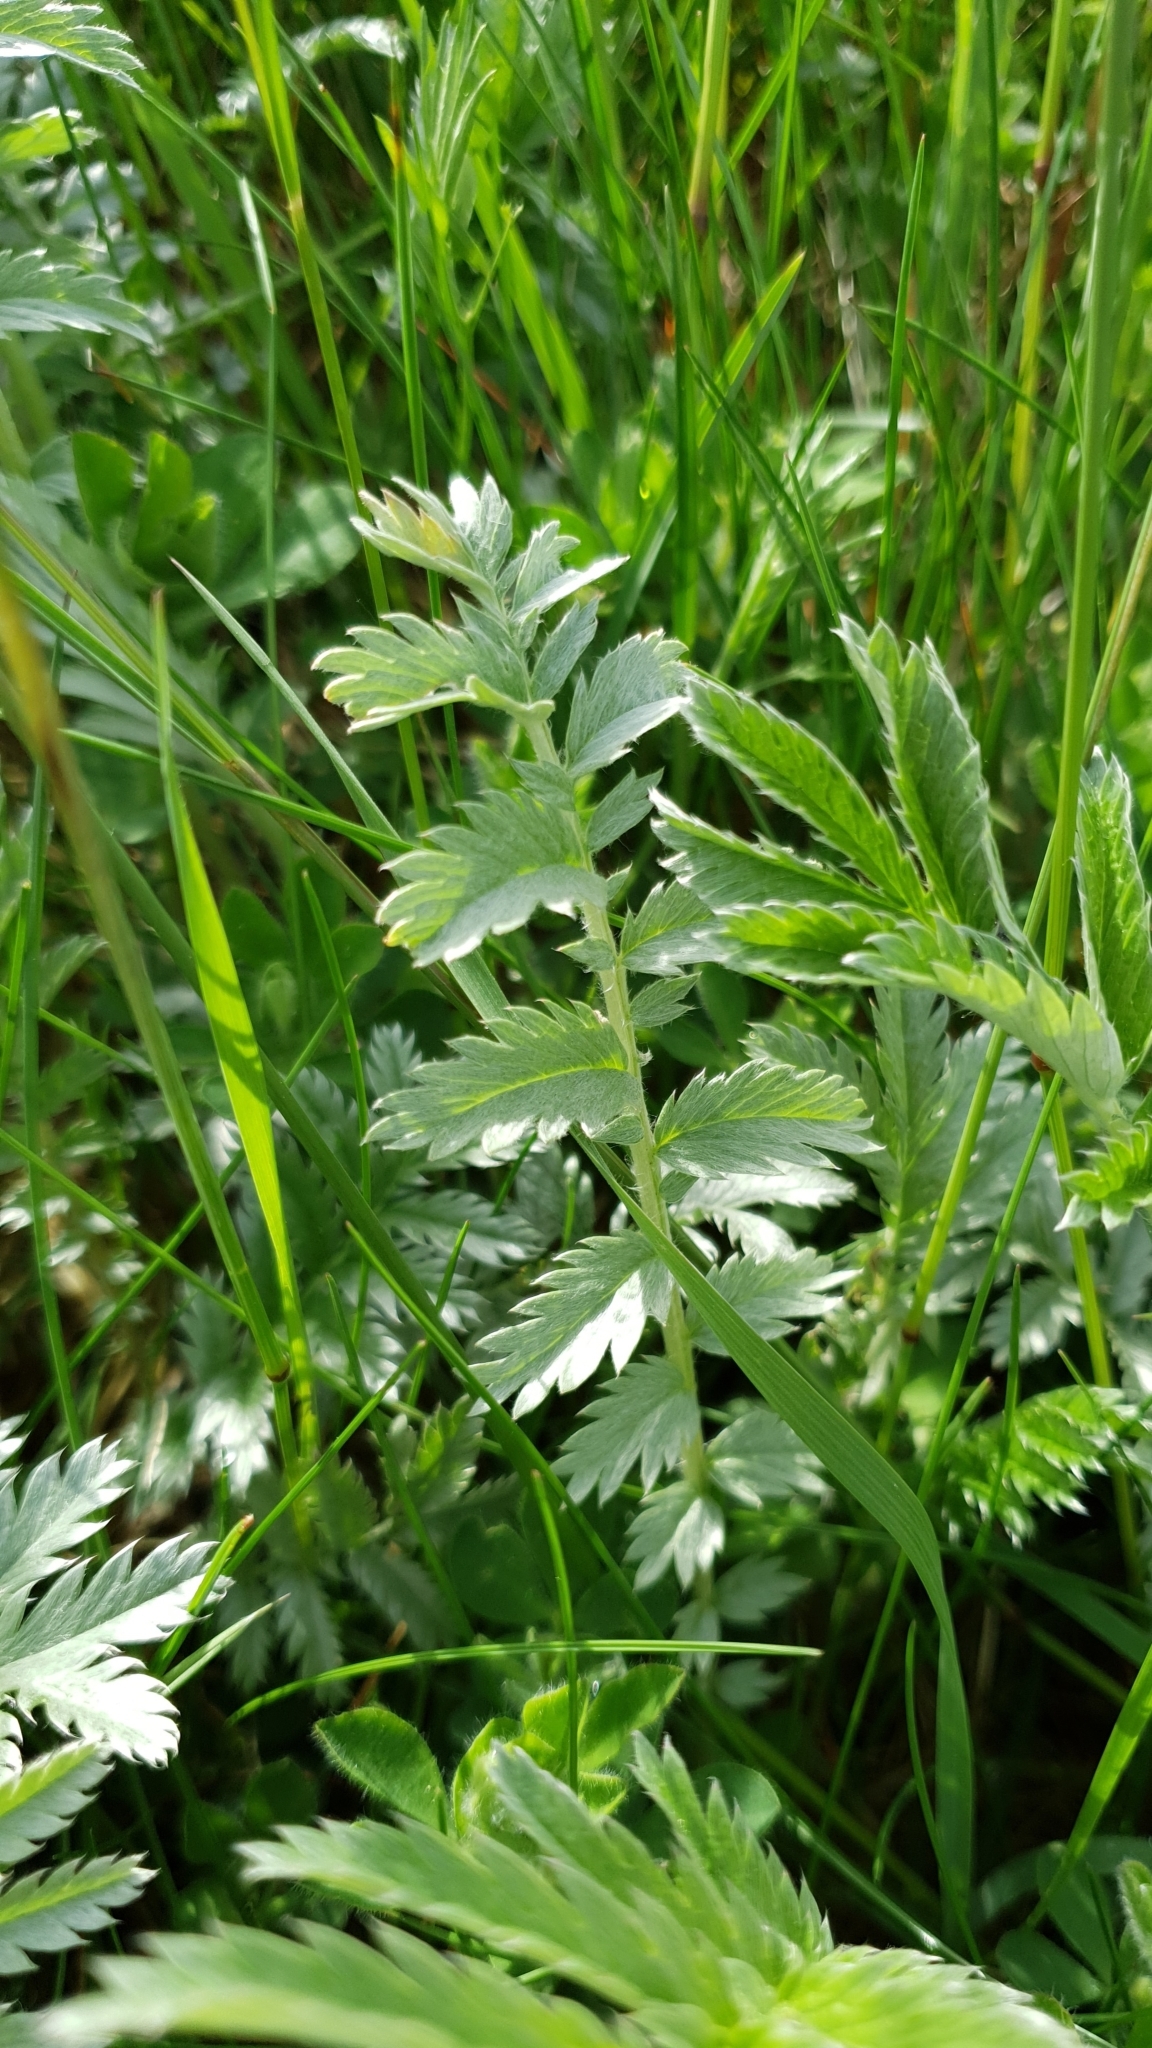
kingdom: Plantae
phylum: Tracheophyta
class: Magnoliopsida
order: Rosales
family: Rosaceae
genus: Argentina
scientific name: Argentina anserina
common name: Common silverweed
